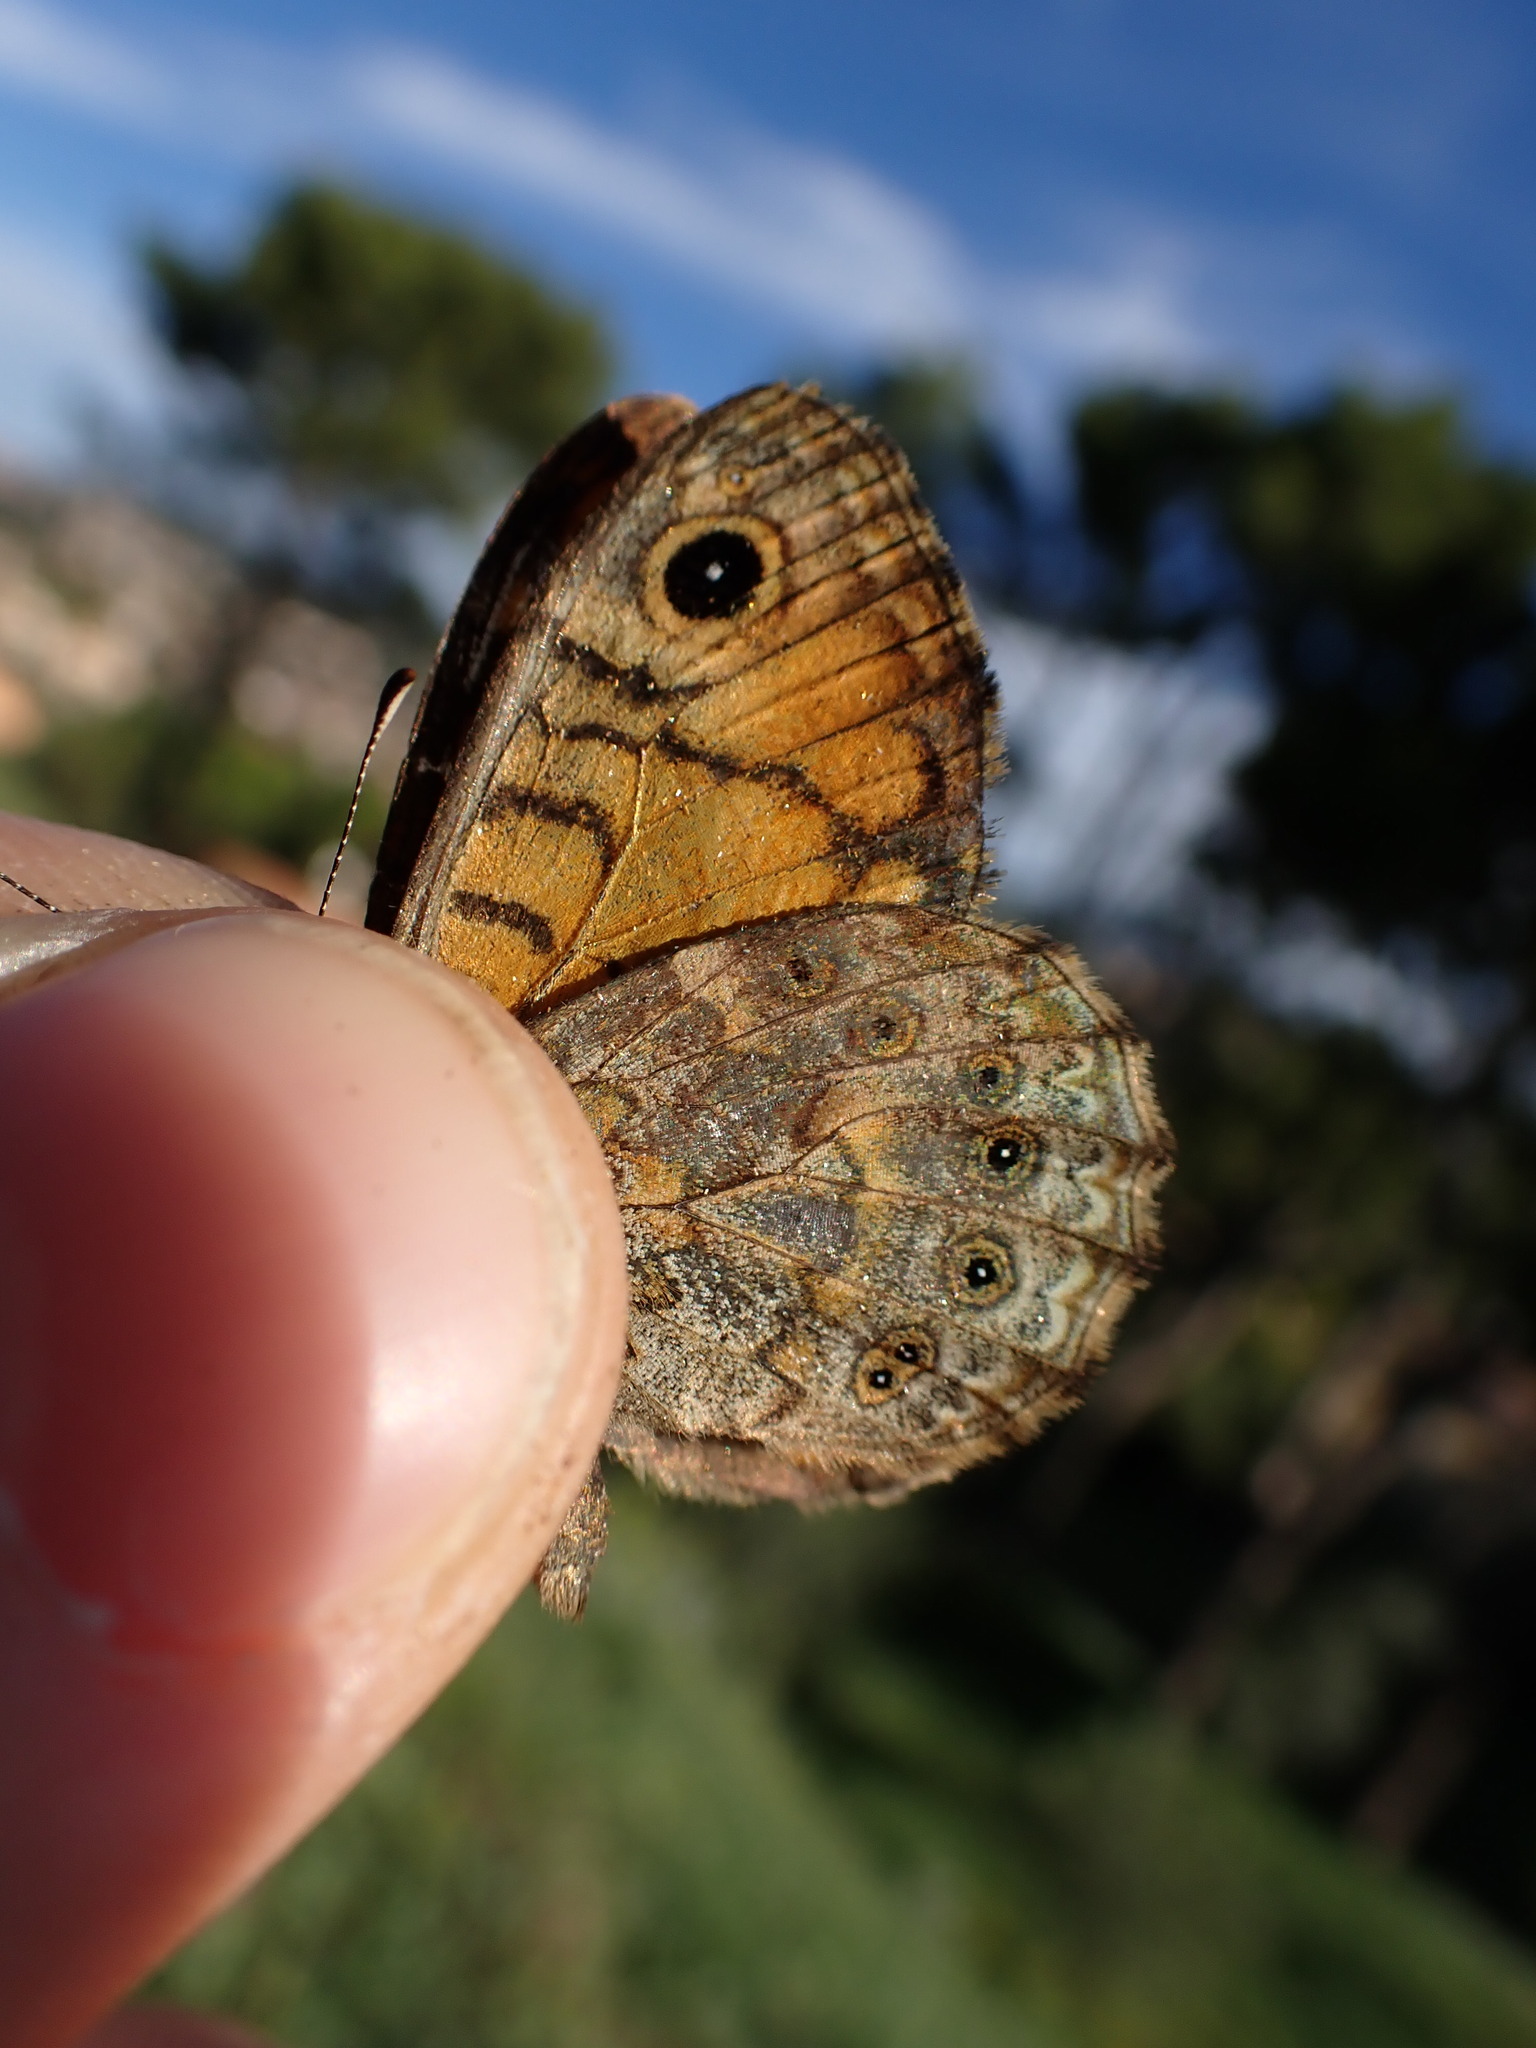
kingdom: Animalia
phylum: Arthropoda
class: Insecta
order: Lepidoptera
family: Nymphalidae
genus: Pararge
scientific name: Pararge Lasiommata megera
